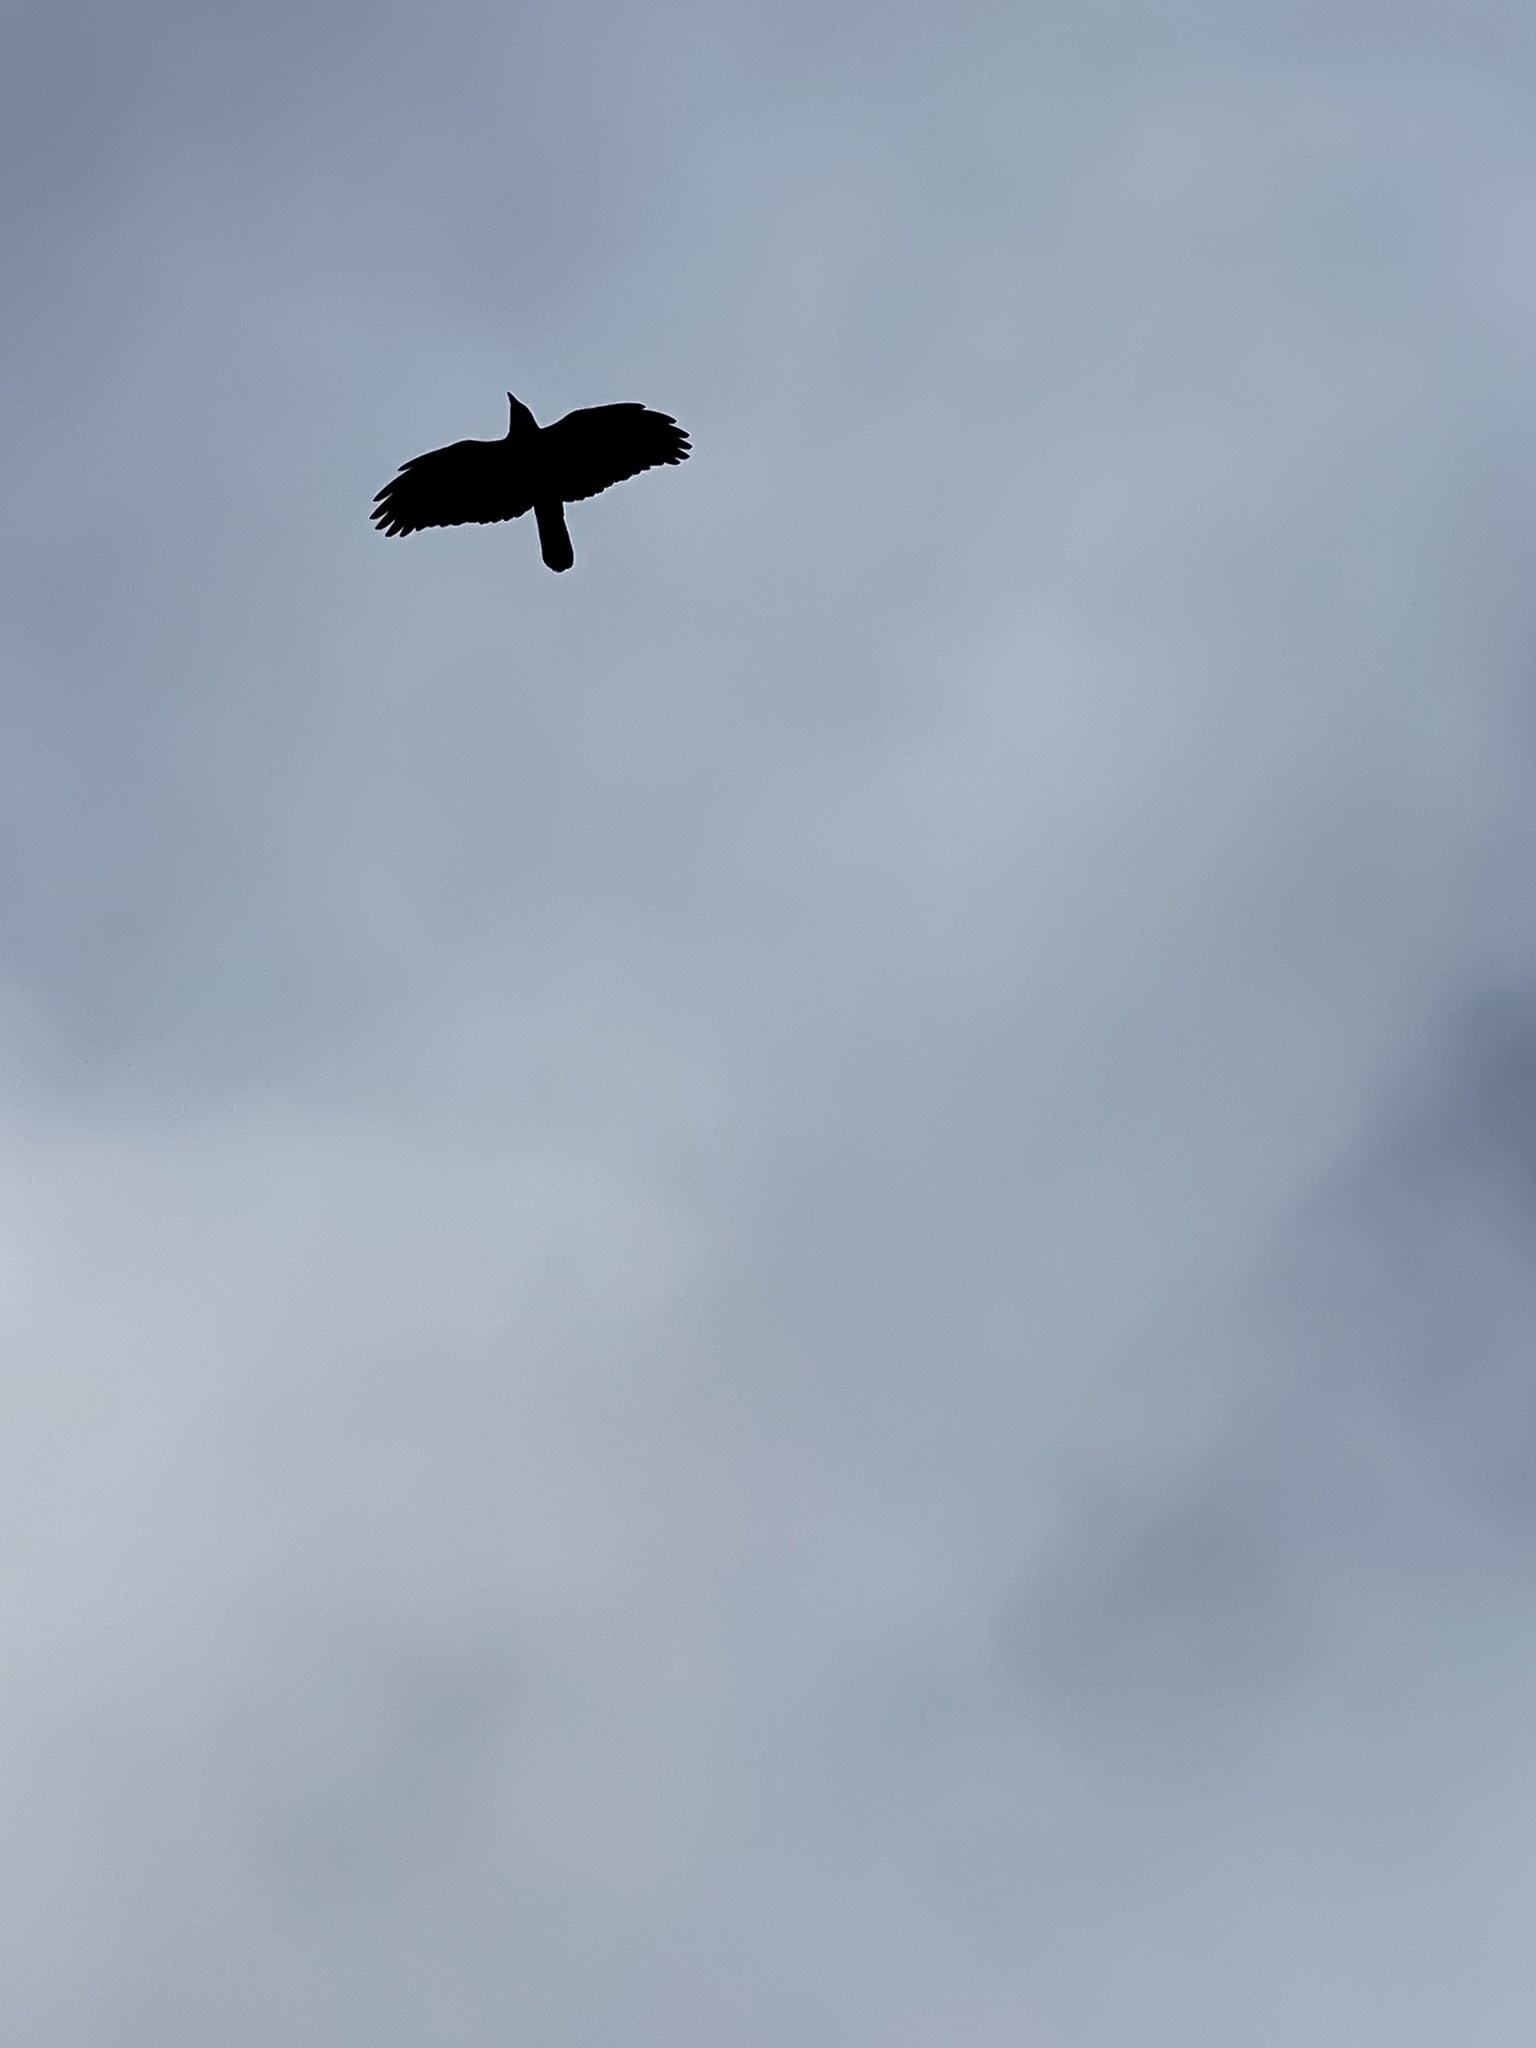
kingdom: Animalia
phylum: Chordata
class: Aves
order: Passeriformes
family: Corvidae
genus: Corvus
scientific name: Corvus brachyrhynchos
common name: American crow
